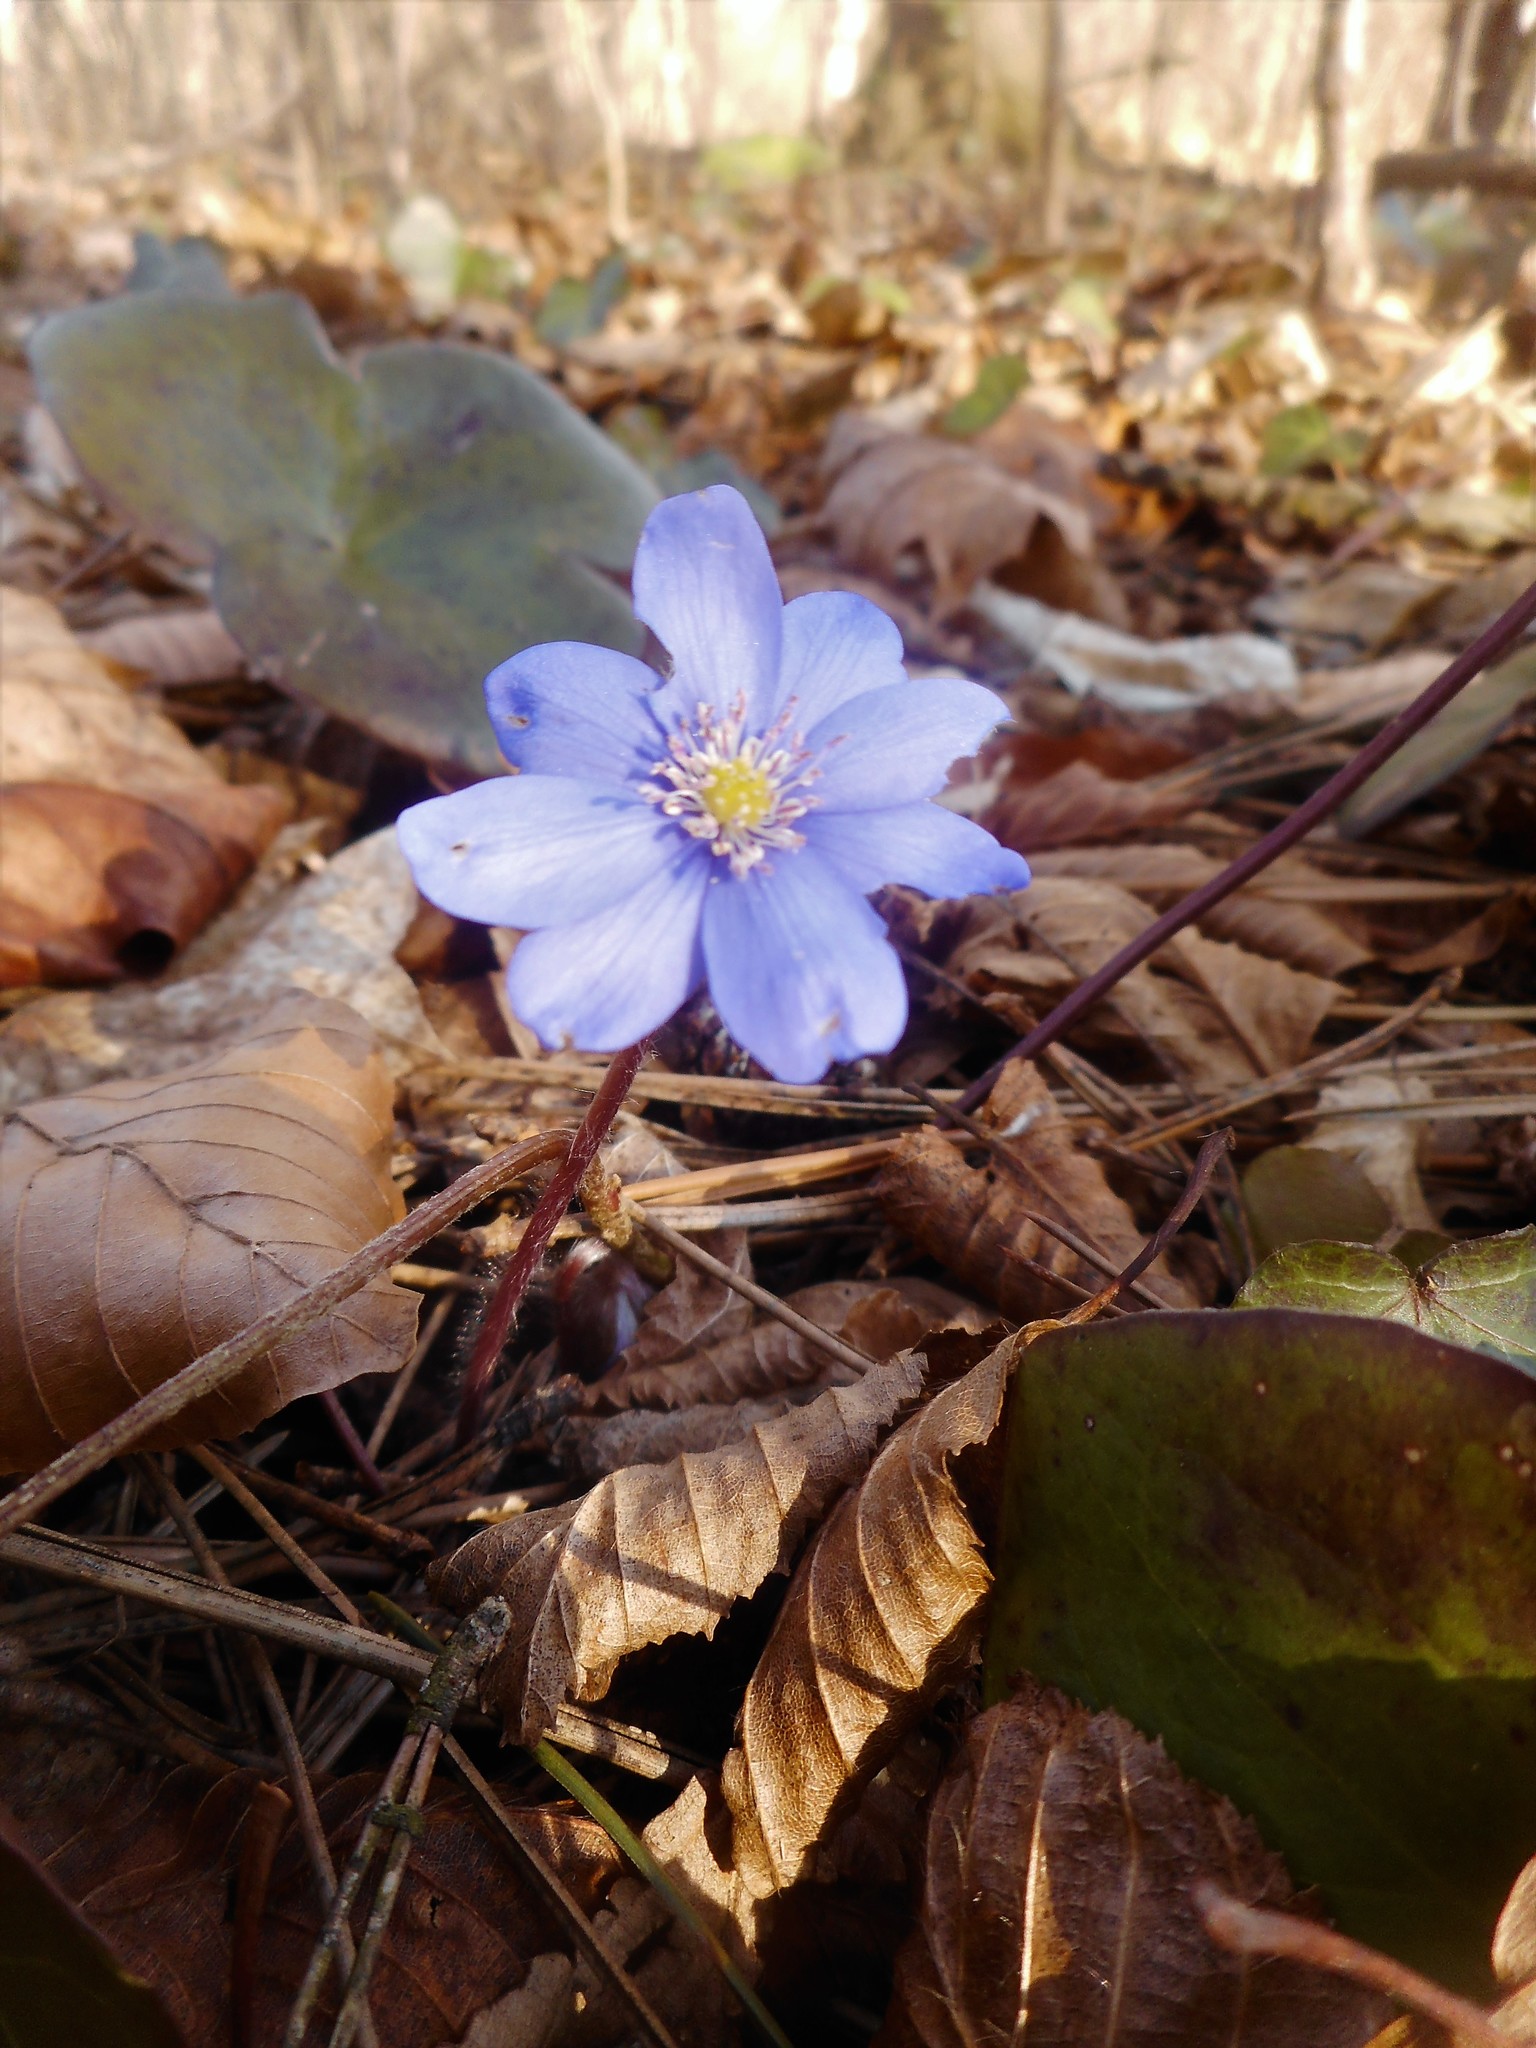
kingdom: Plantae
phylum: Tracheophyta
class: Magnoliopsida
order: Ranunculales
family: Ranunculaceae
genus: Hepatica
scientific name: Hepatica nobilis
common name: Liverleaf
